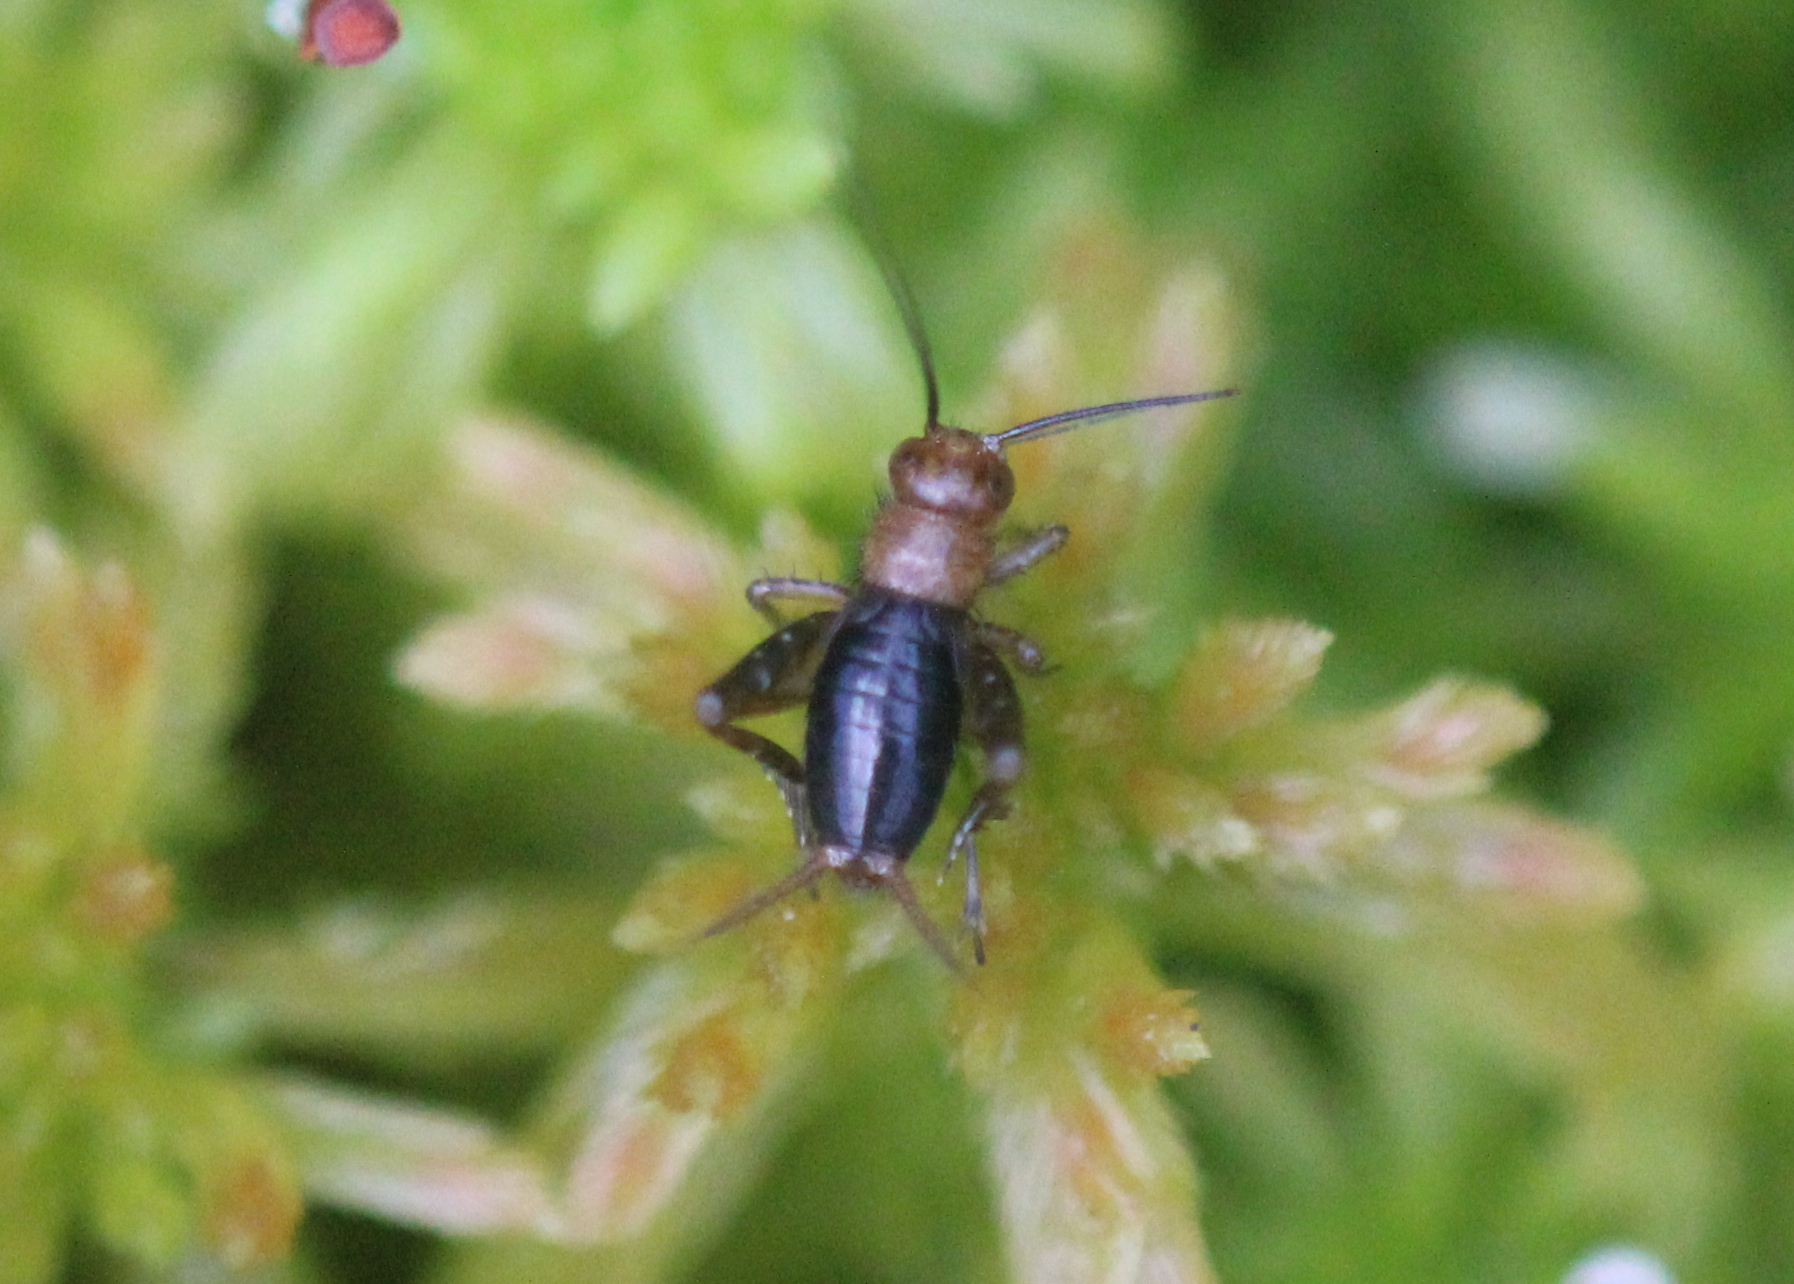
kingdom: Animalia
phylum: Arthropoda
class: Insecta
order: Orthoptera
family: Trigonidiidae
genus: Neonemobius
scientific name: Neonemobius palustris
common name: Marsh ground cricket
